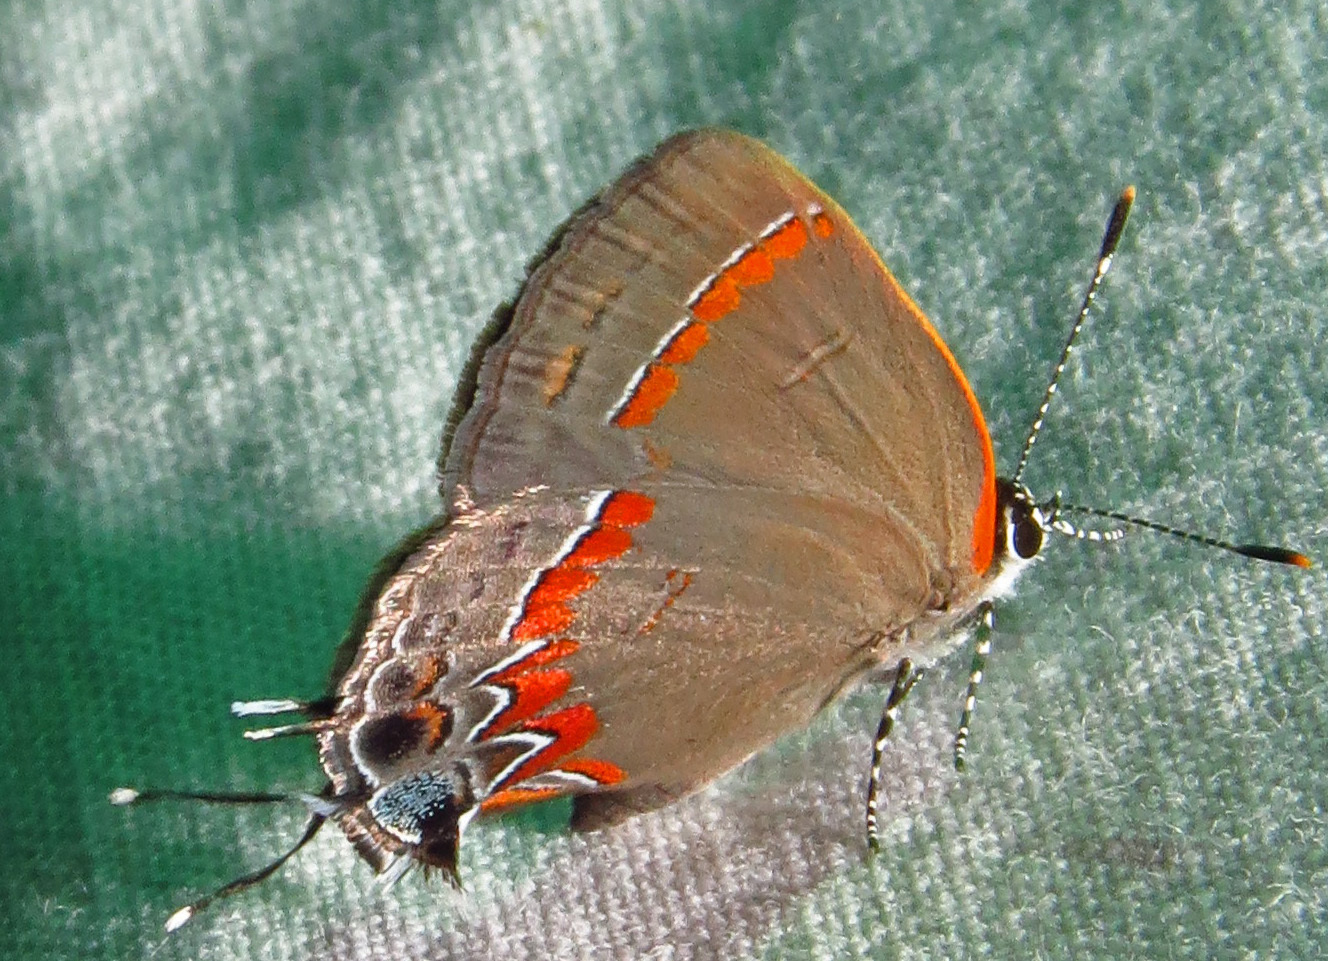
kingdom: Animalia
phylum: Arthropoda
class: Insecta
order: Lepidoptera
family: Lycaenidae
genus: Calycopis
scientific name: Calycopis cecrops
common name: Red-banded hairstreak
